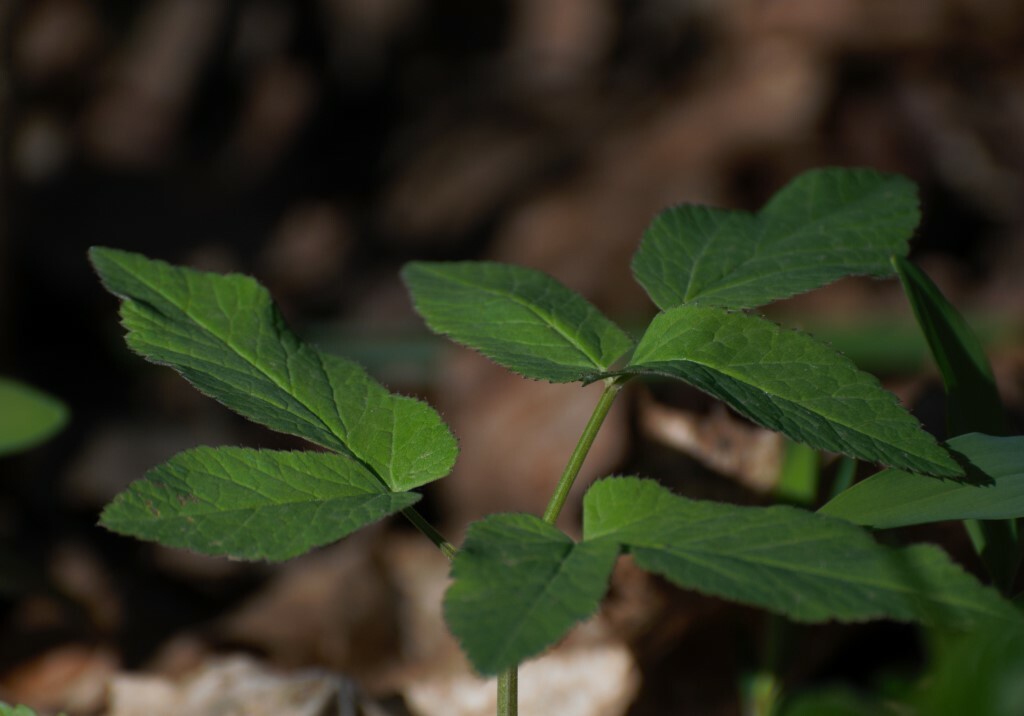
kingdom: Plantae
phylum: Tracheophyta
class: Magnoliopsida
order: Apiales
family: Apiaceae
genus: Aegopodium
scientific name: Aegopodium podagraria
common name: Ground-elder
